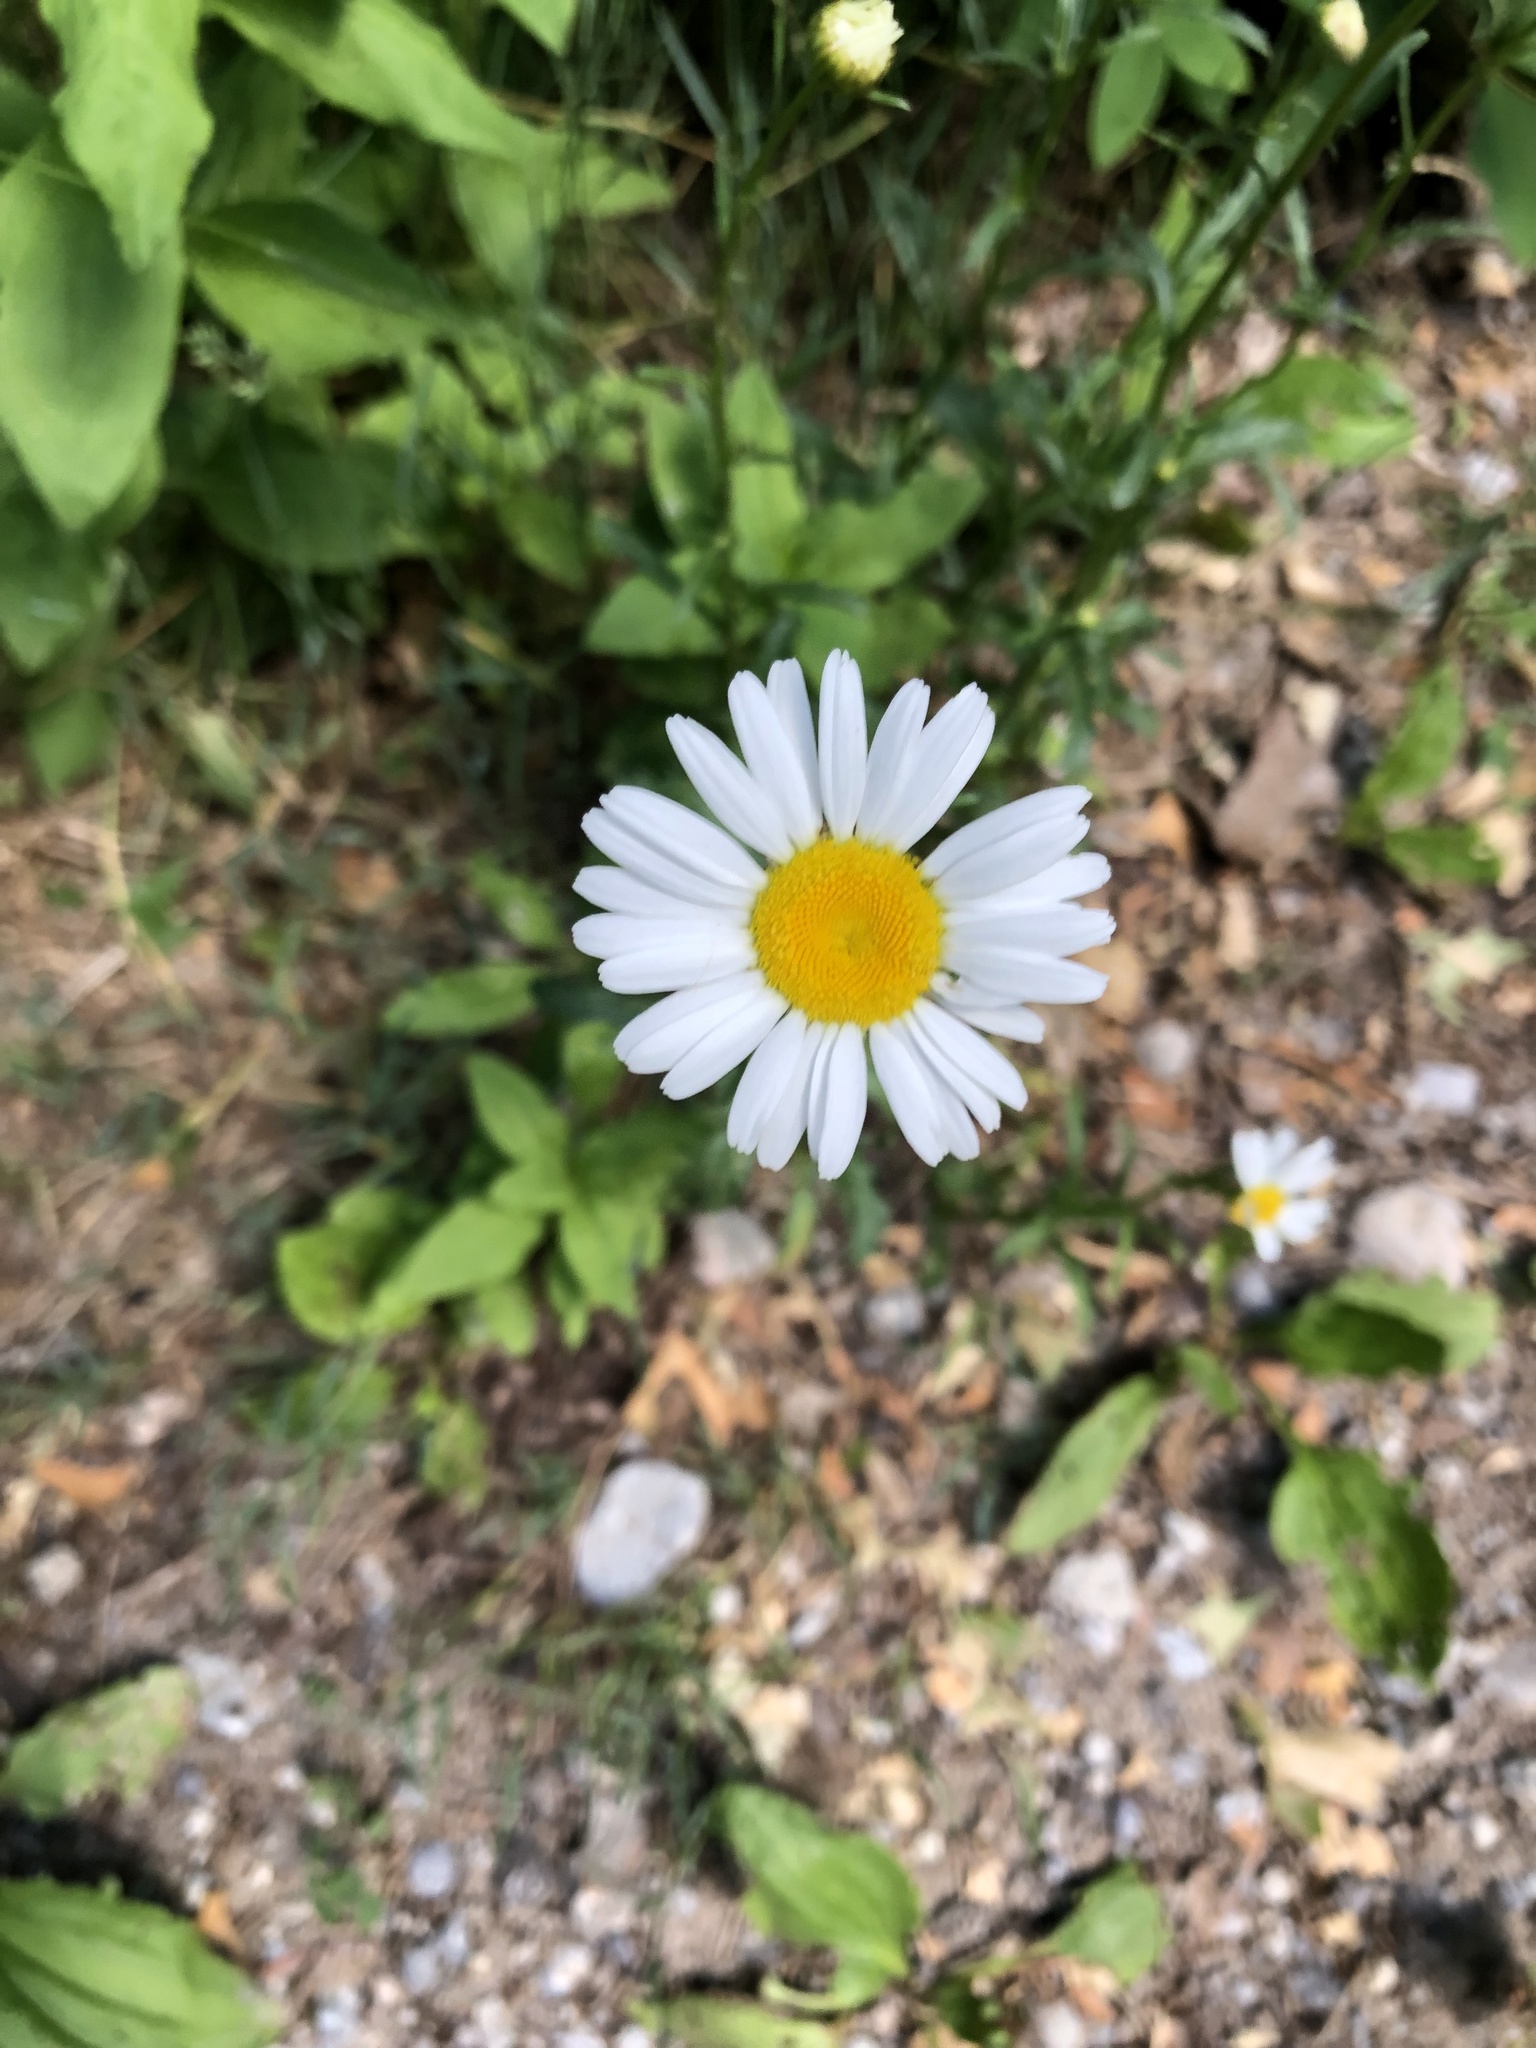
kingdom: Plantae
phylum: Tracheophyta
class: Magnoliopsida
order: Asterales
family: Asteraceae
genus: Leucanthemum
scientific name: Leucanthemum vulgare
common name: Oxeye daisy
